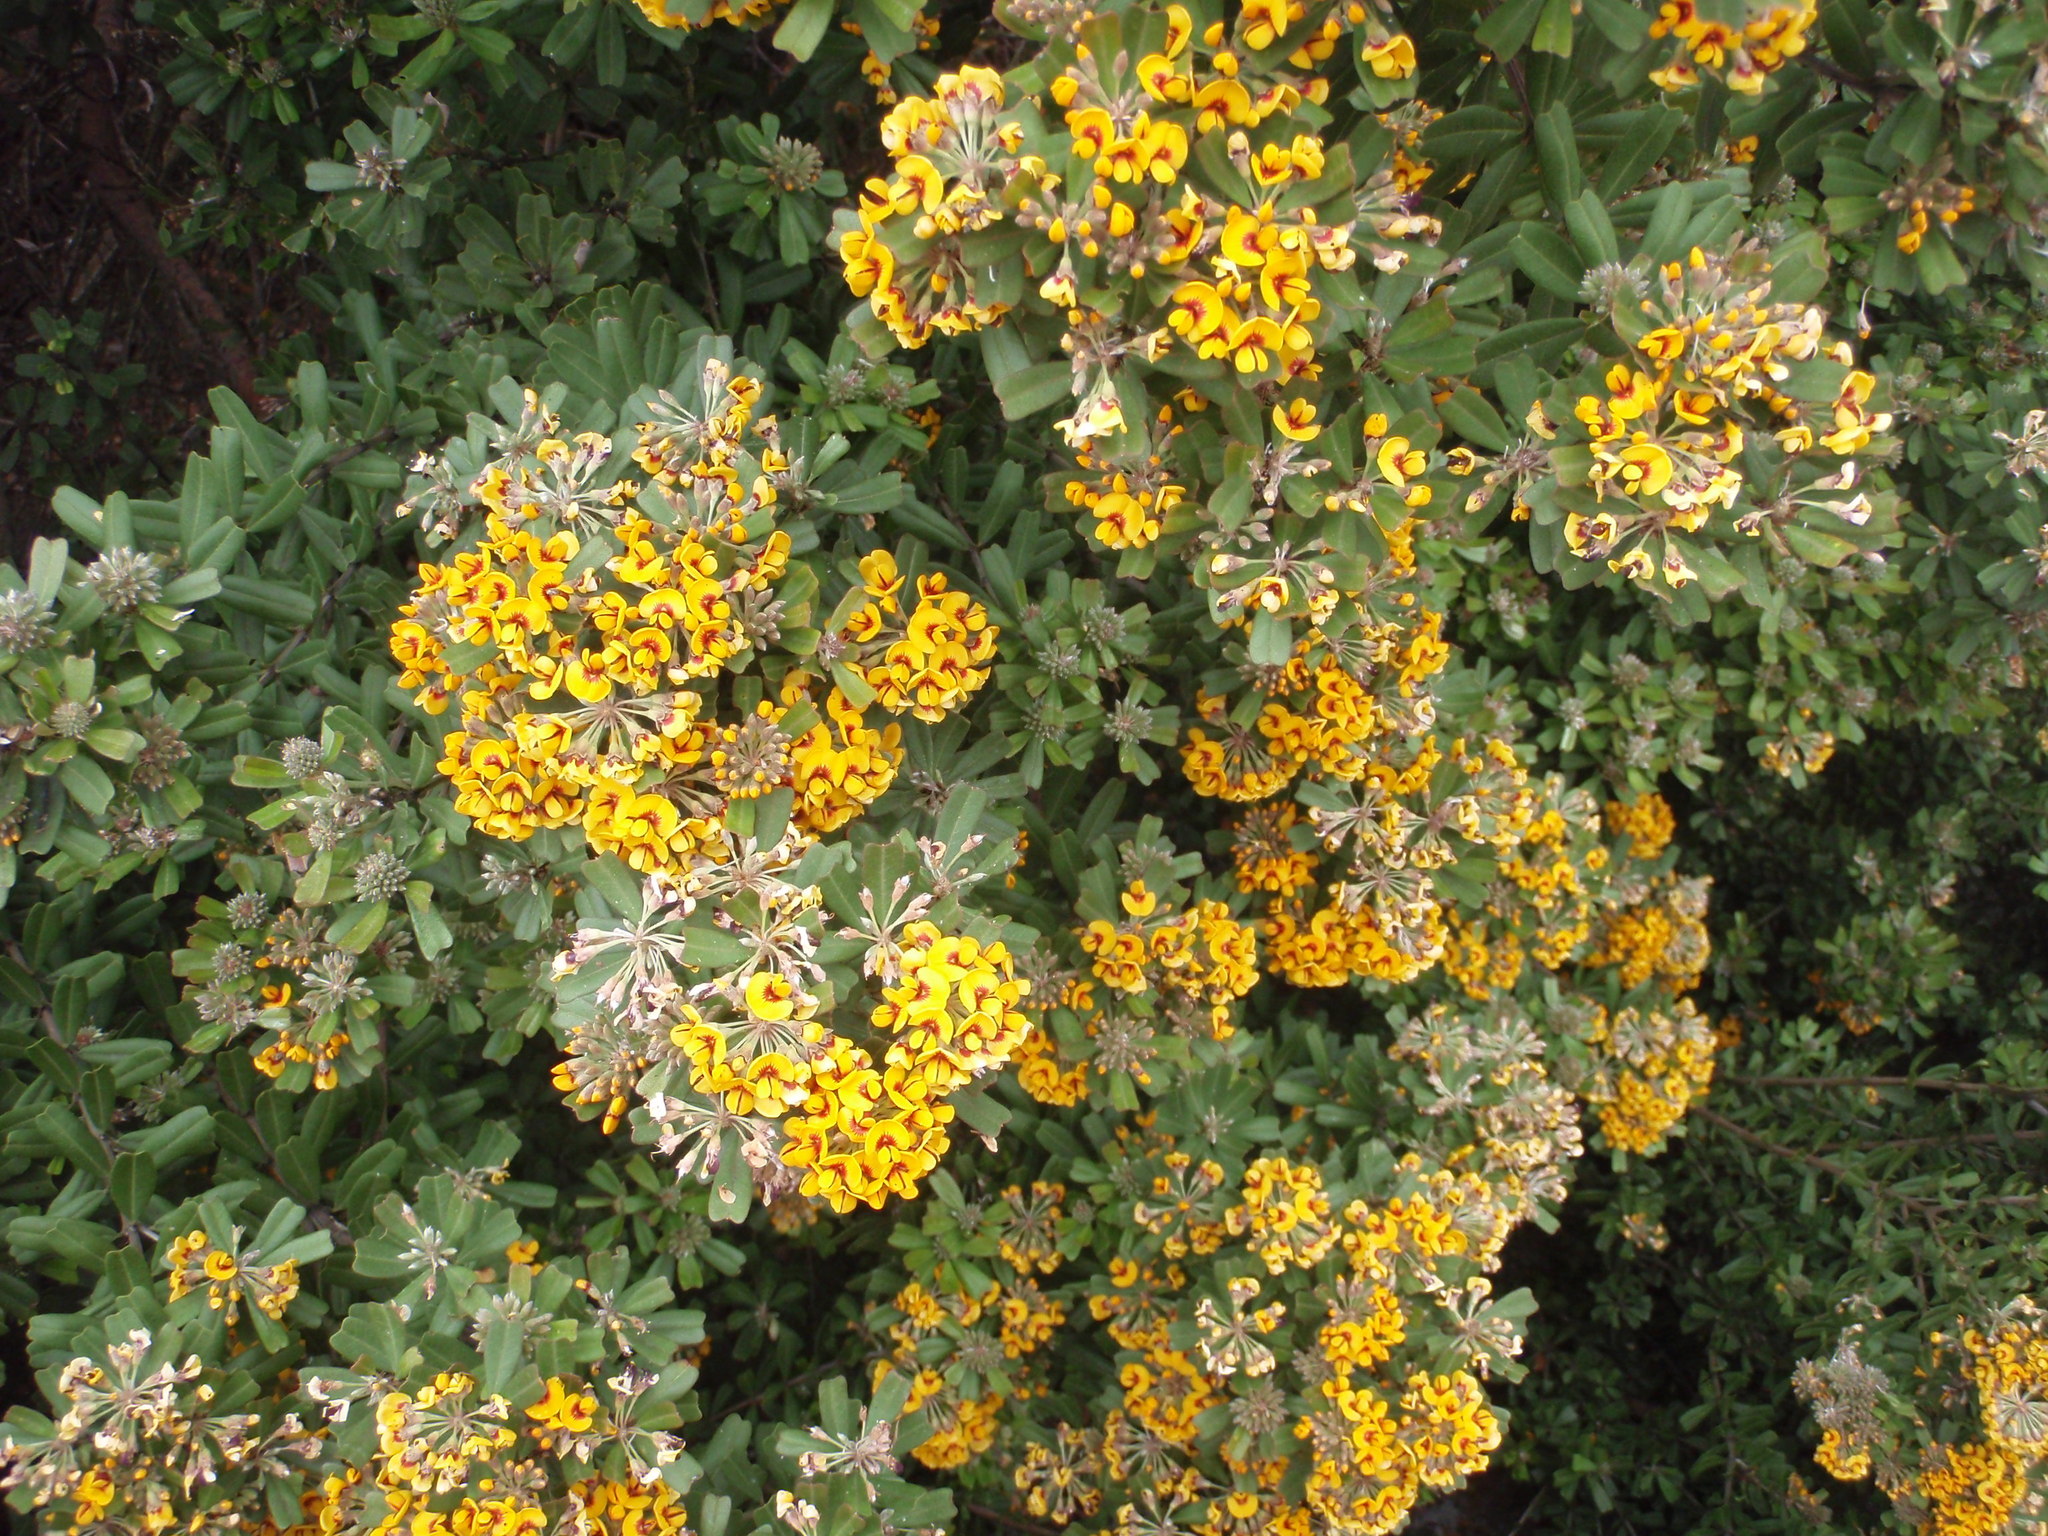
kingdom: Plantae
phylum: Tracheophyta
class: Magnoliopsida
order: Fabales
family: Fabaceae
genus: Gastrolobium
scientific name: Gastrolobium bilobum
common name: Heart-leaf poisonbush
